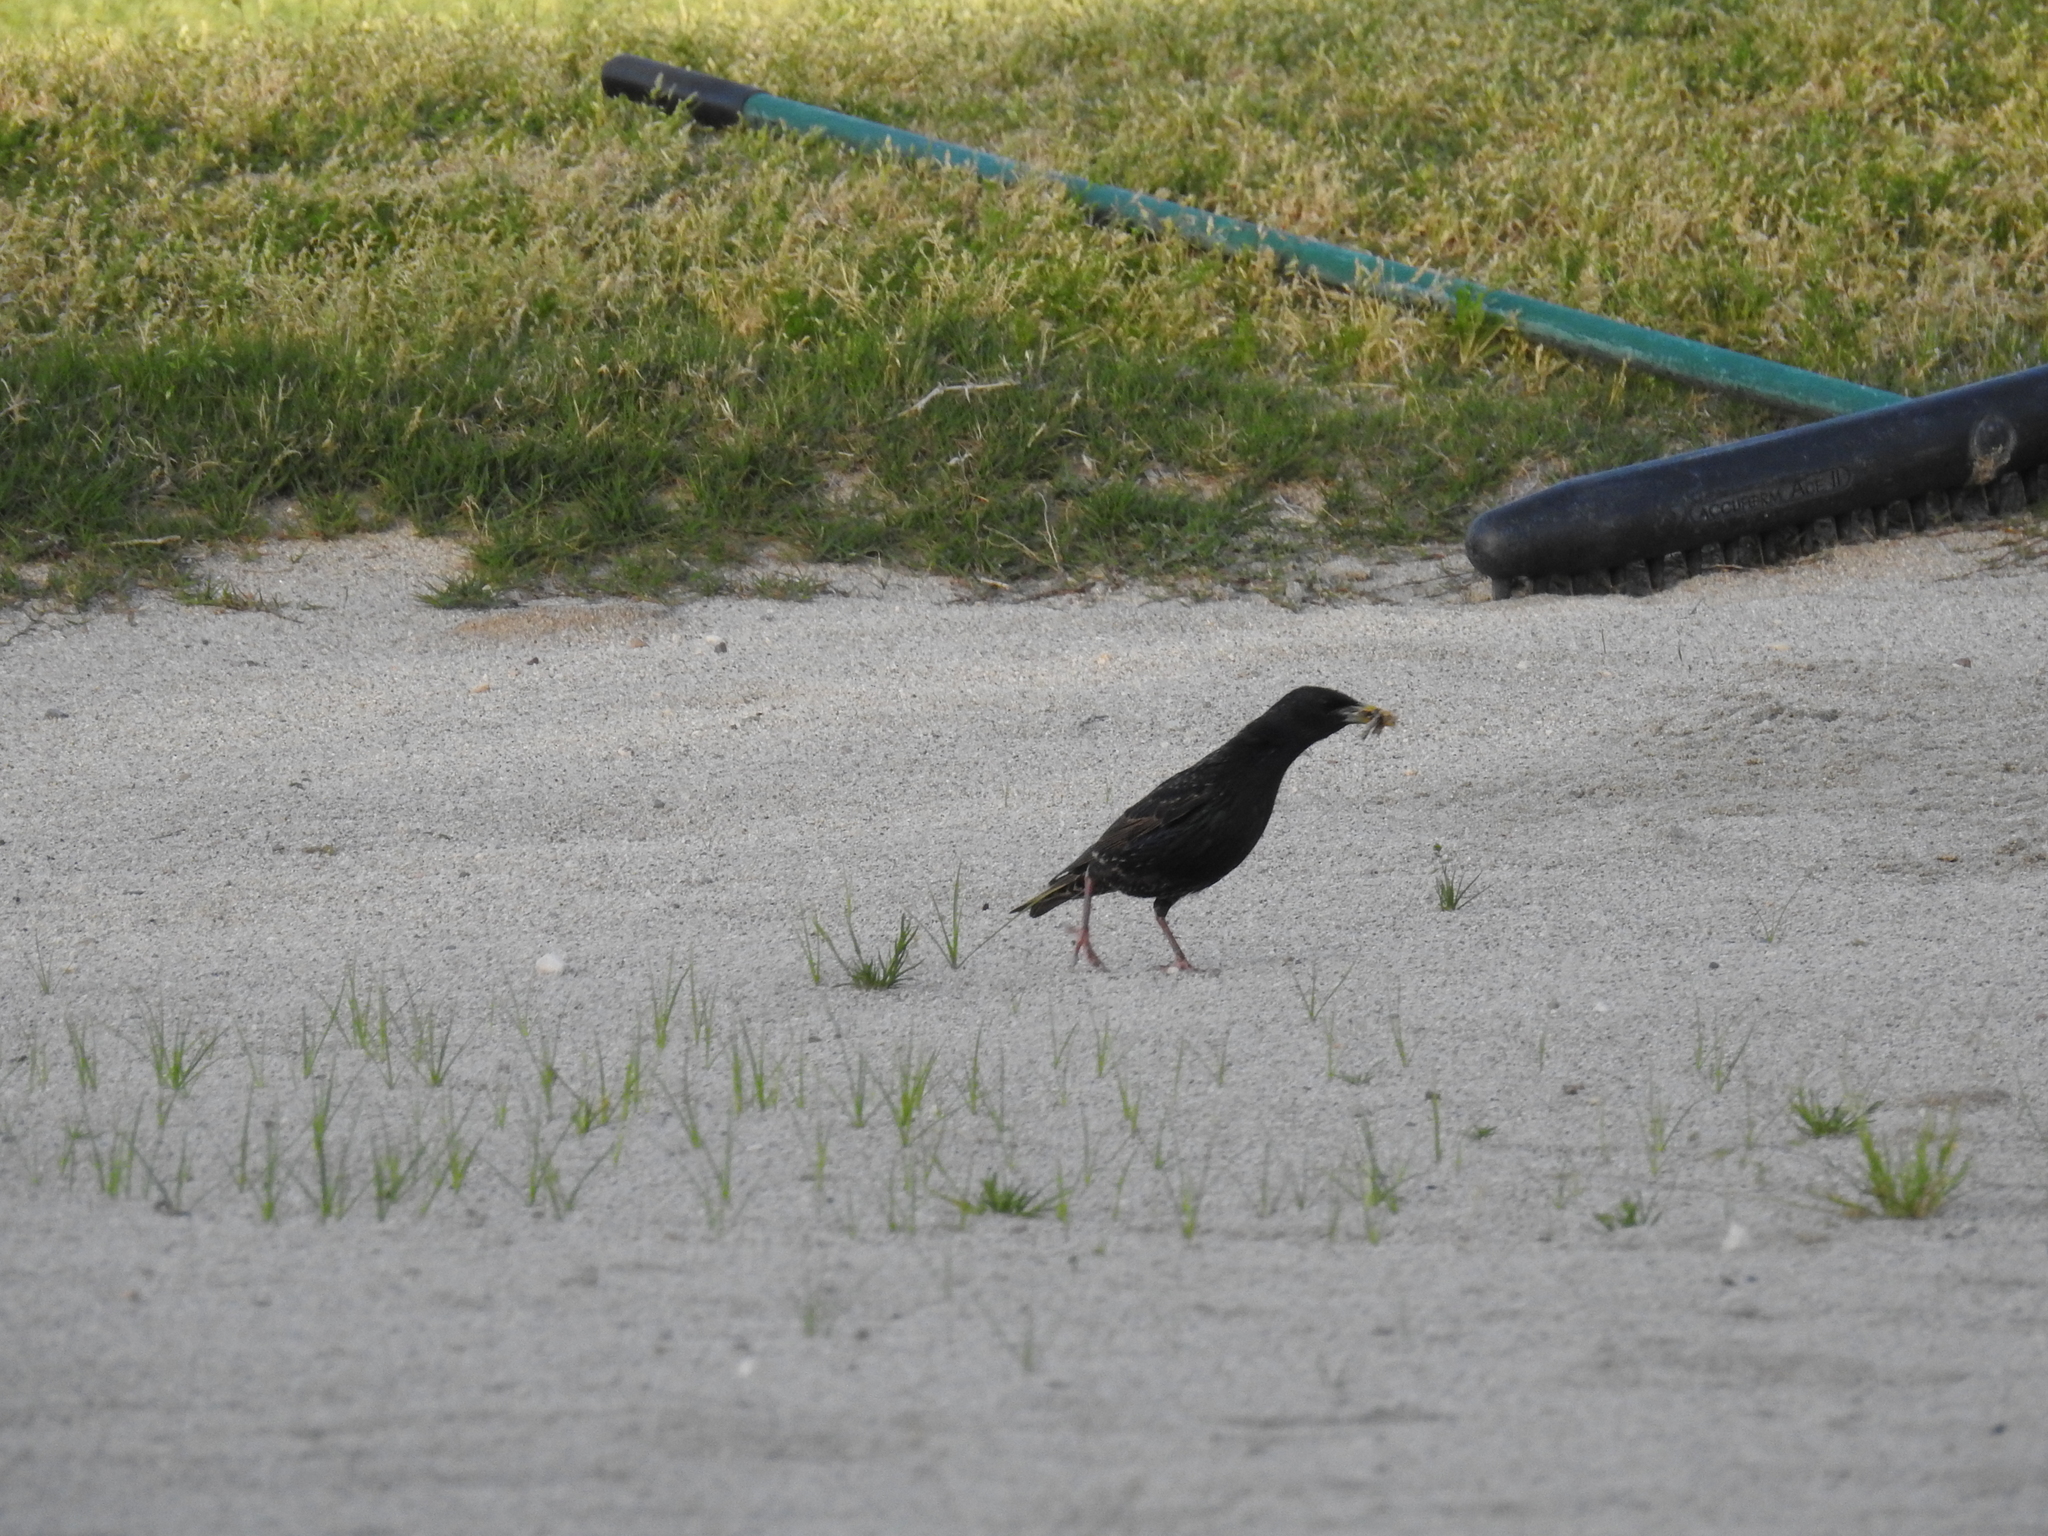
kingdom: Animalia
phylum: Chordata
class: Aves
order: Passeriformes
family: Sturnidae
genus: Sturnus
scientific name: Sturnus vulgaris
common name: Common starling
